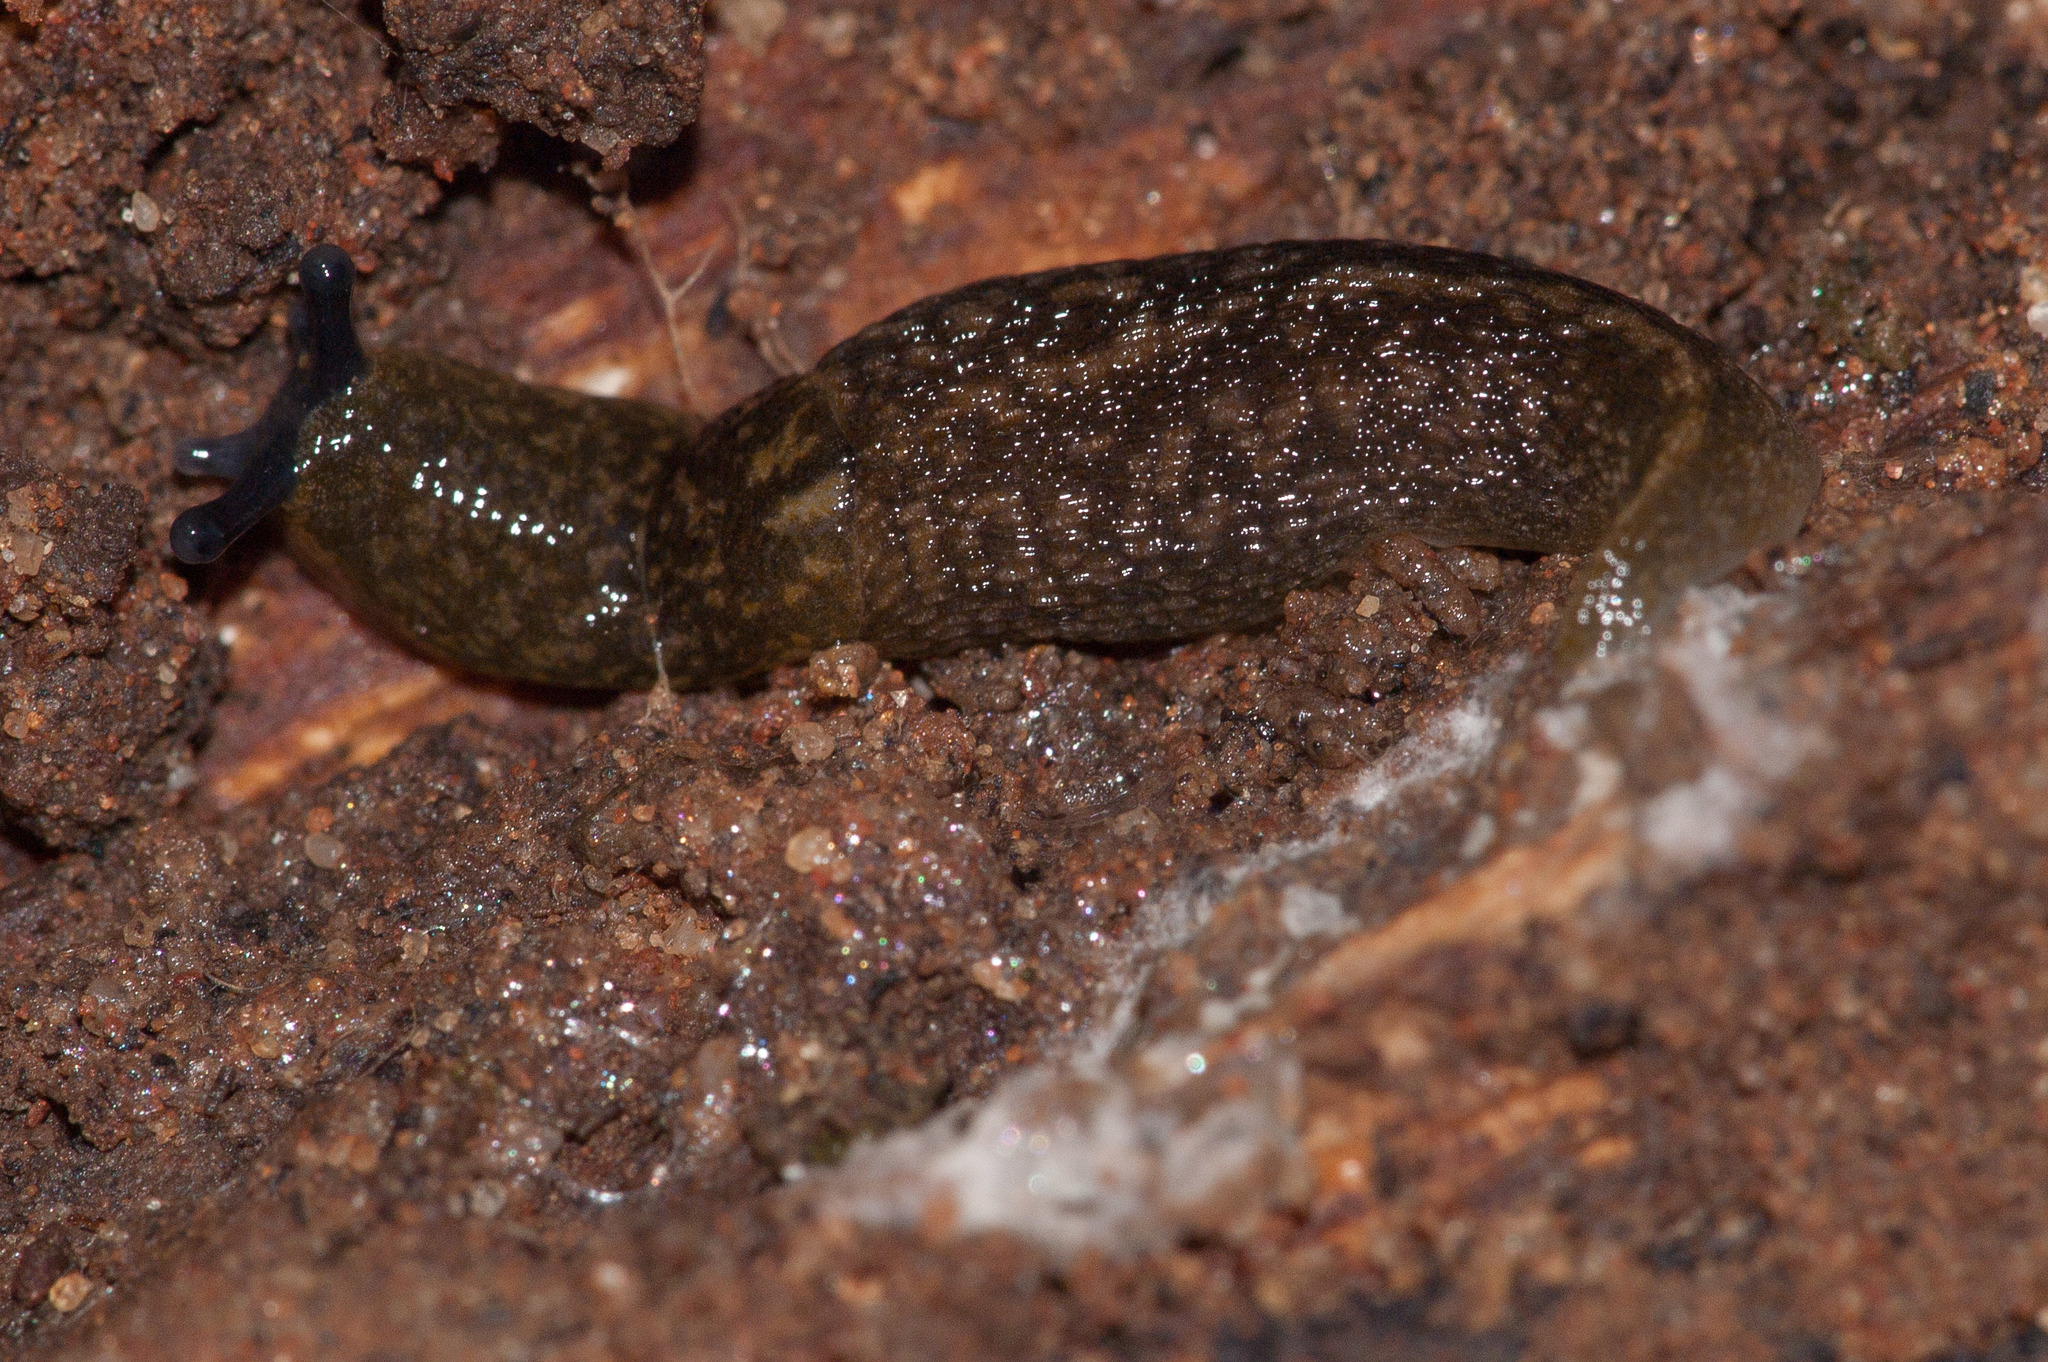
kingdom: Animalia
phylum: Mollusca
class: Gastropoda
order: Stylommatophora
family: Limacidae
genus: Limacus
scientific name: Limacus flavus
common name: Yellow gardenslug
